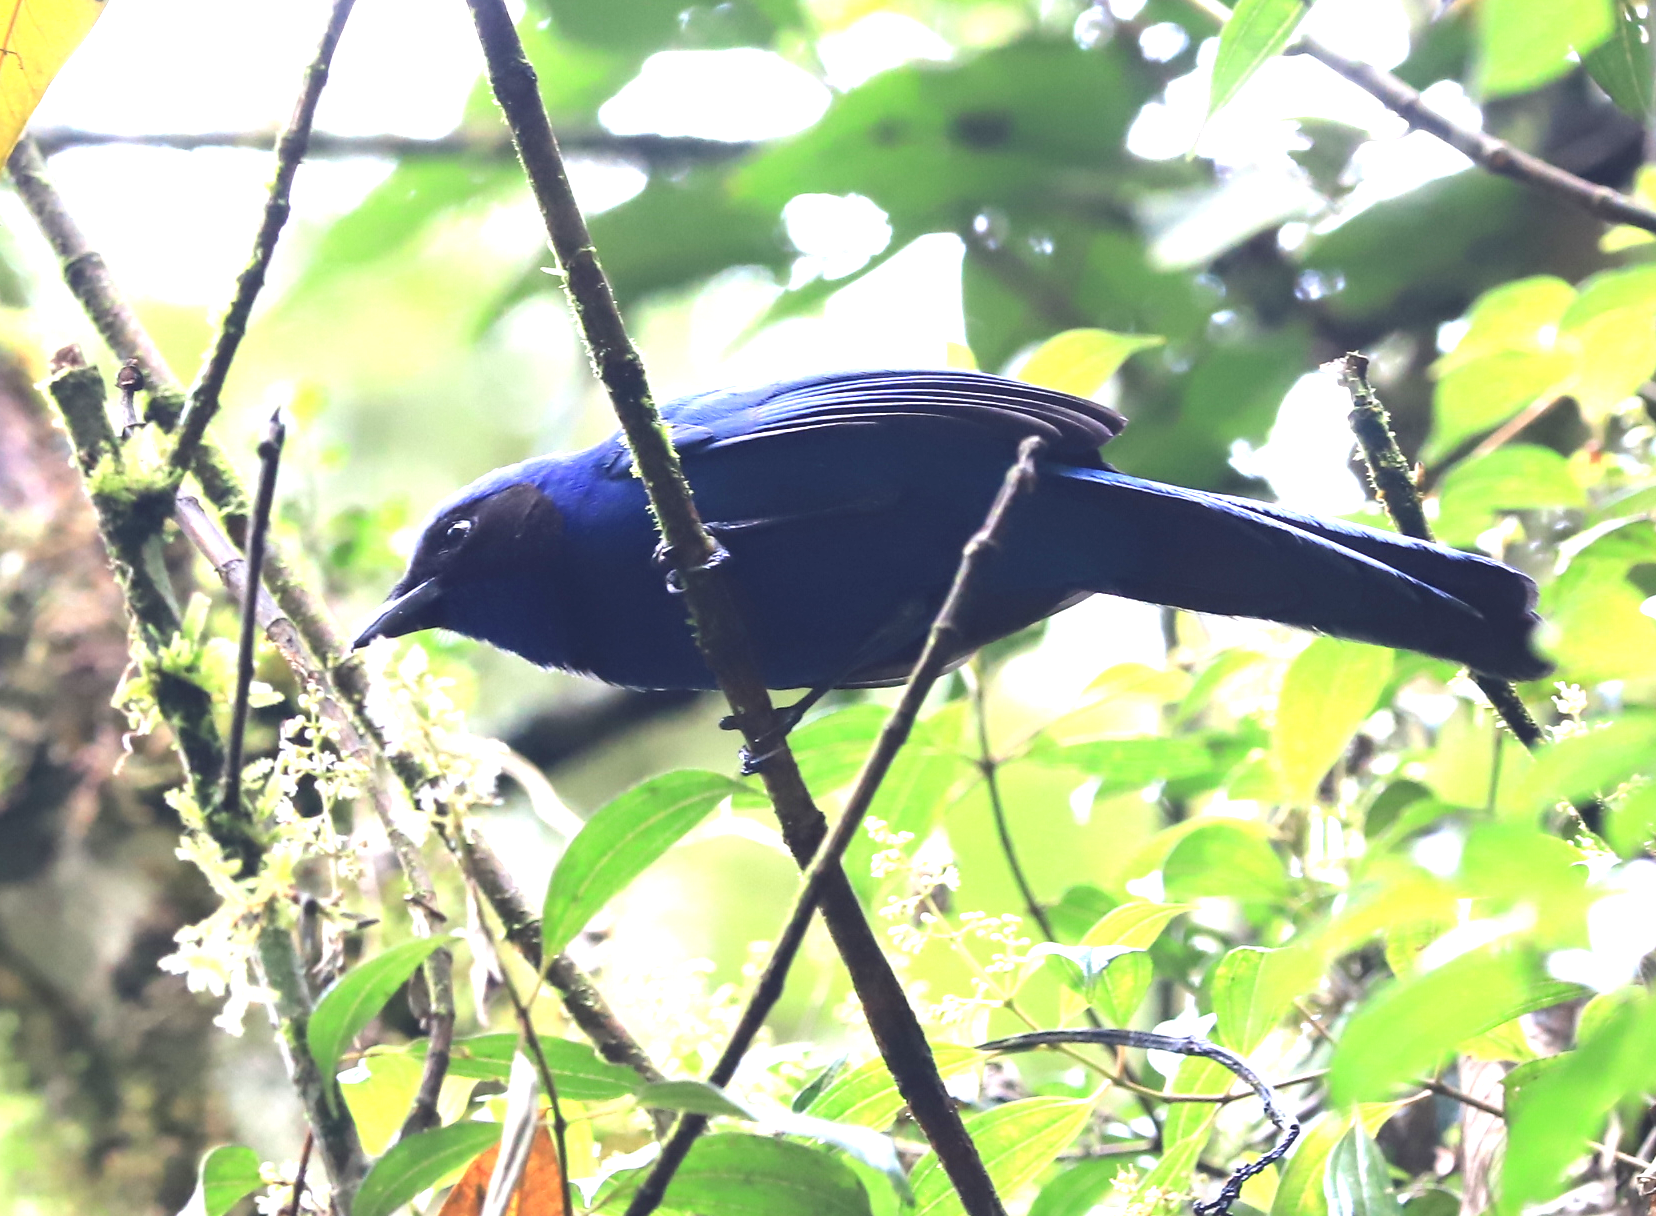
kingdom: Animalia
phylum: Chordata
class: Aves
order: Passeriformes
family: Corvidae
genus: Cyanolyca
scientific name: Cyanolyca armillata
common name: Black-collared jay
